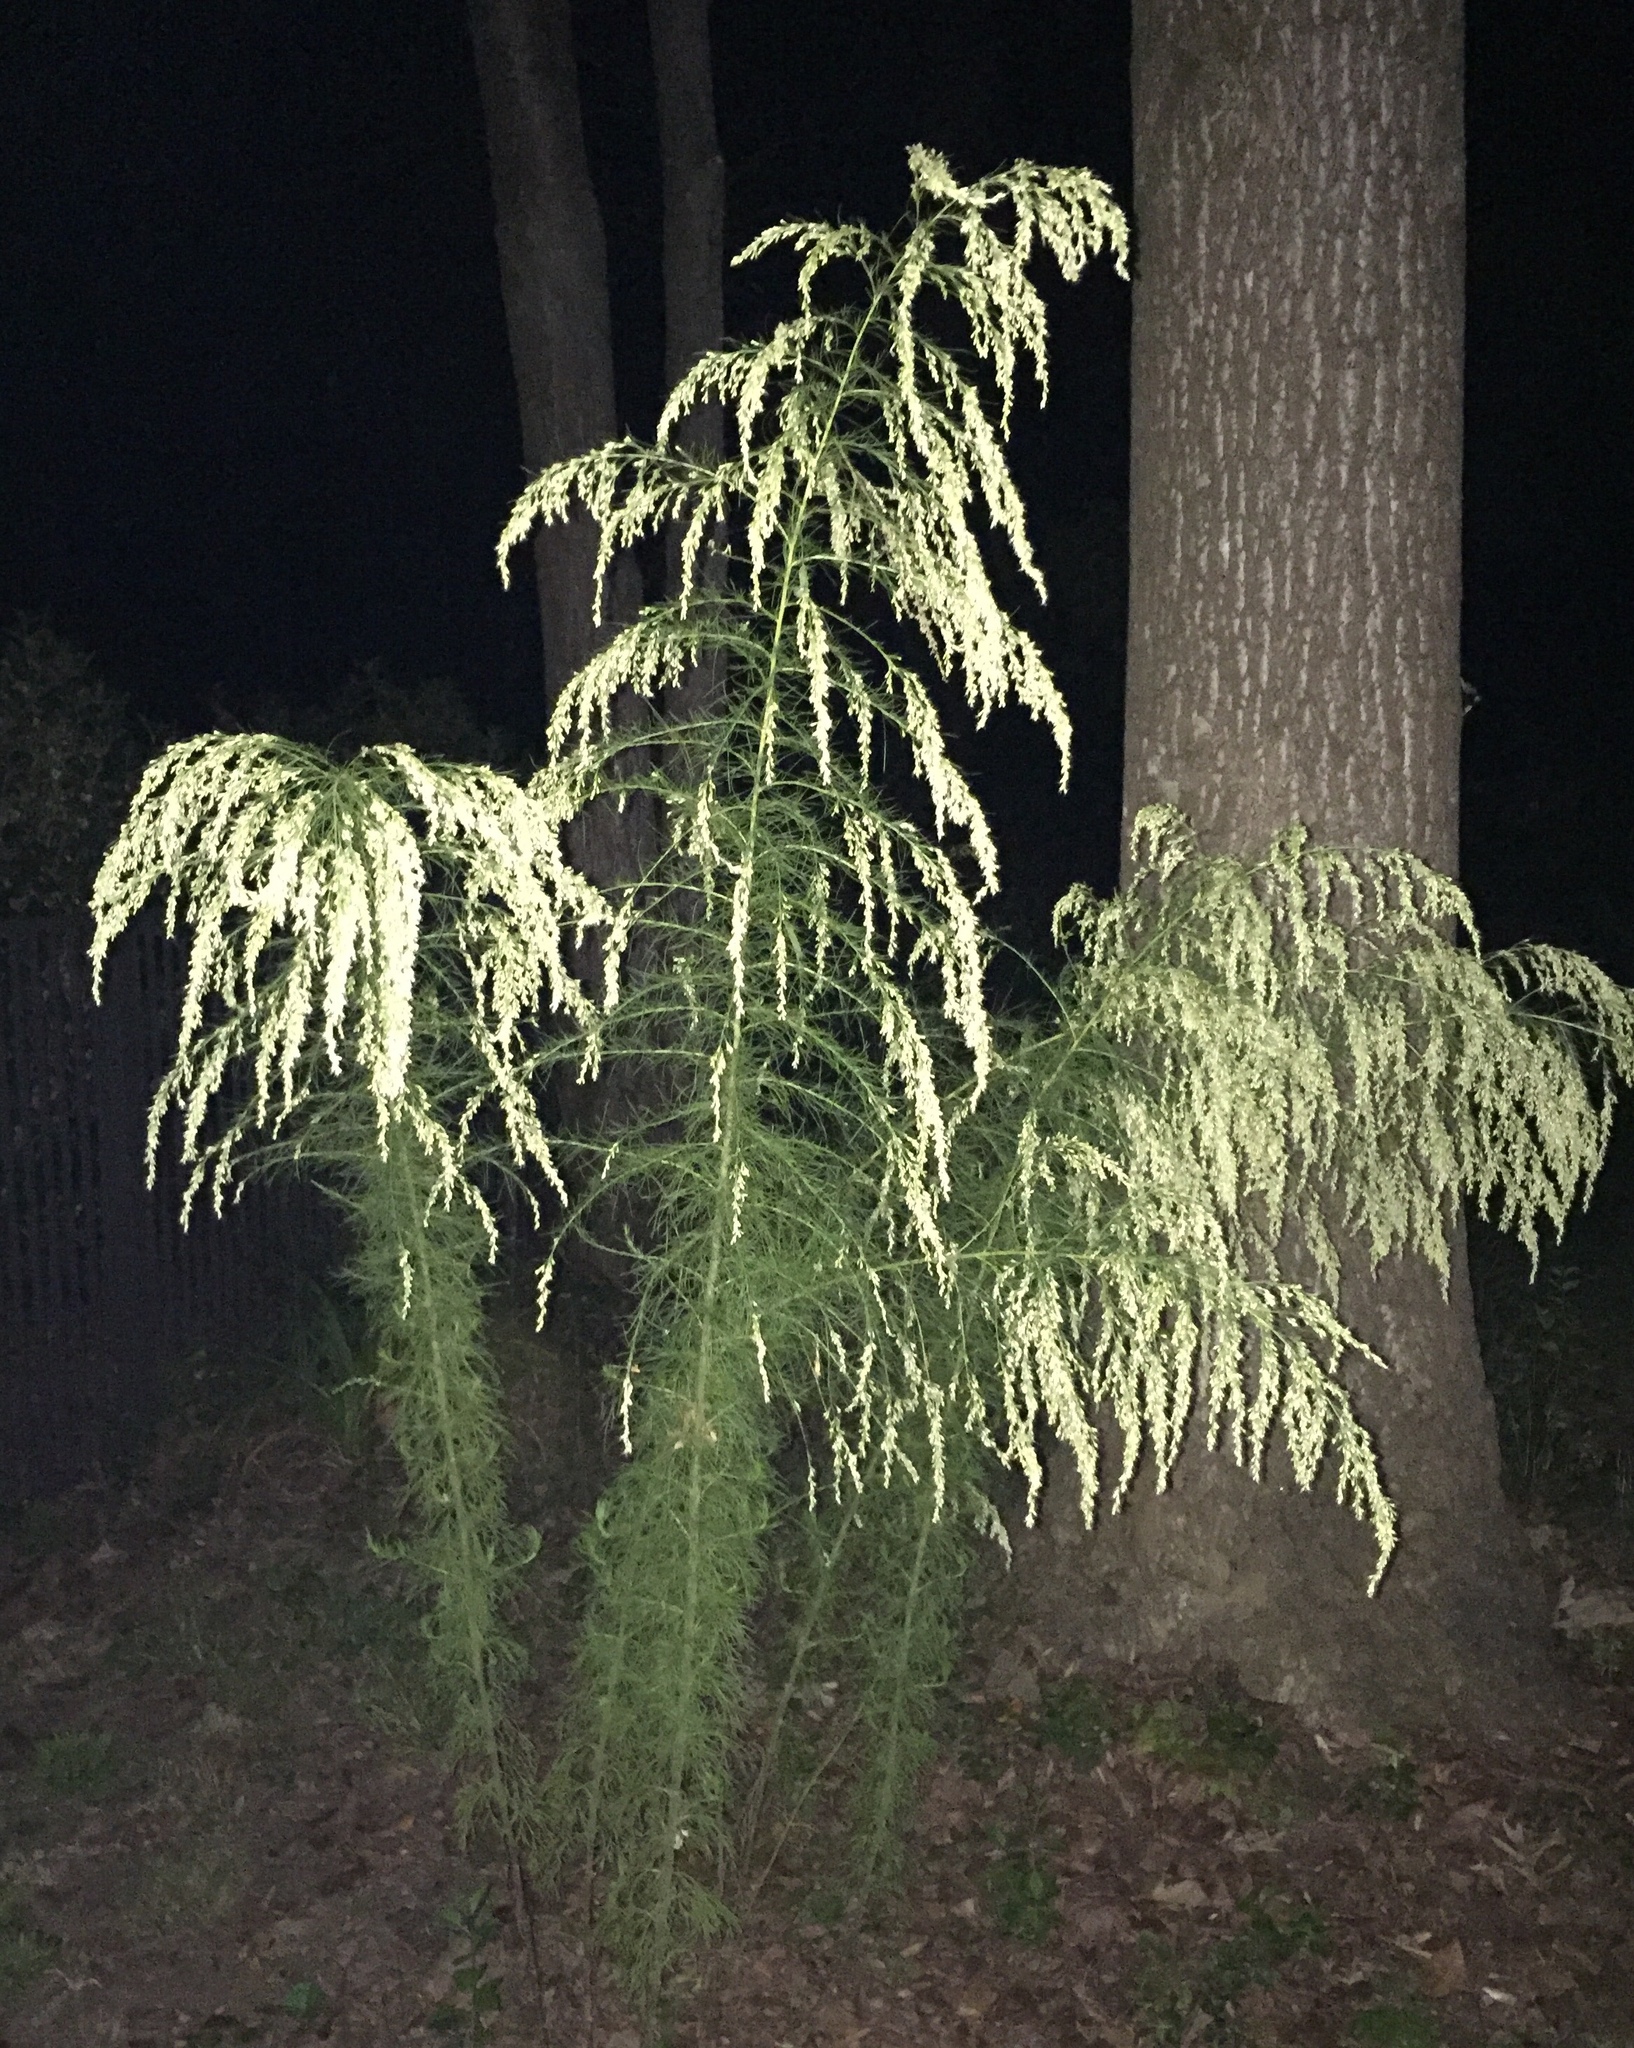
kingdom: Plantae
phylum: Tracheophyta
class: Magnoliopsida
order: Asterales
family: Asteraceae
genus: Eupatorium
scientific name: Eupatorium capillifolium
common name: Dog-fennel
